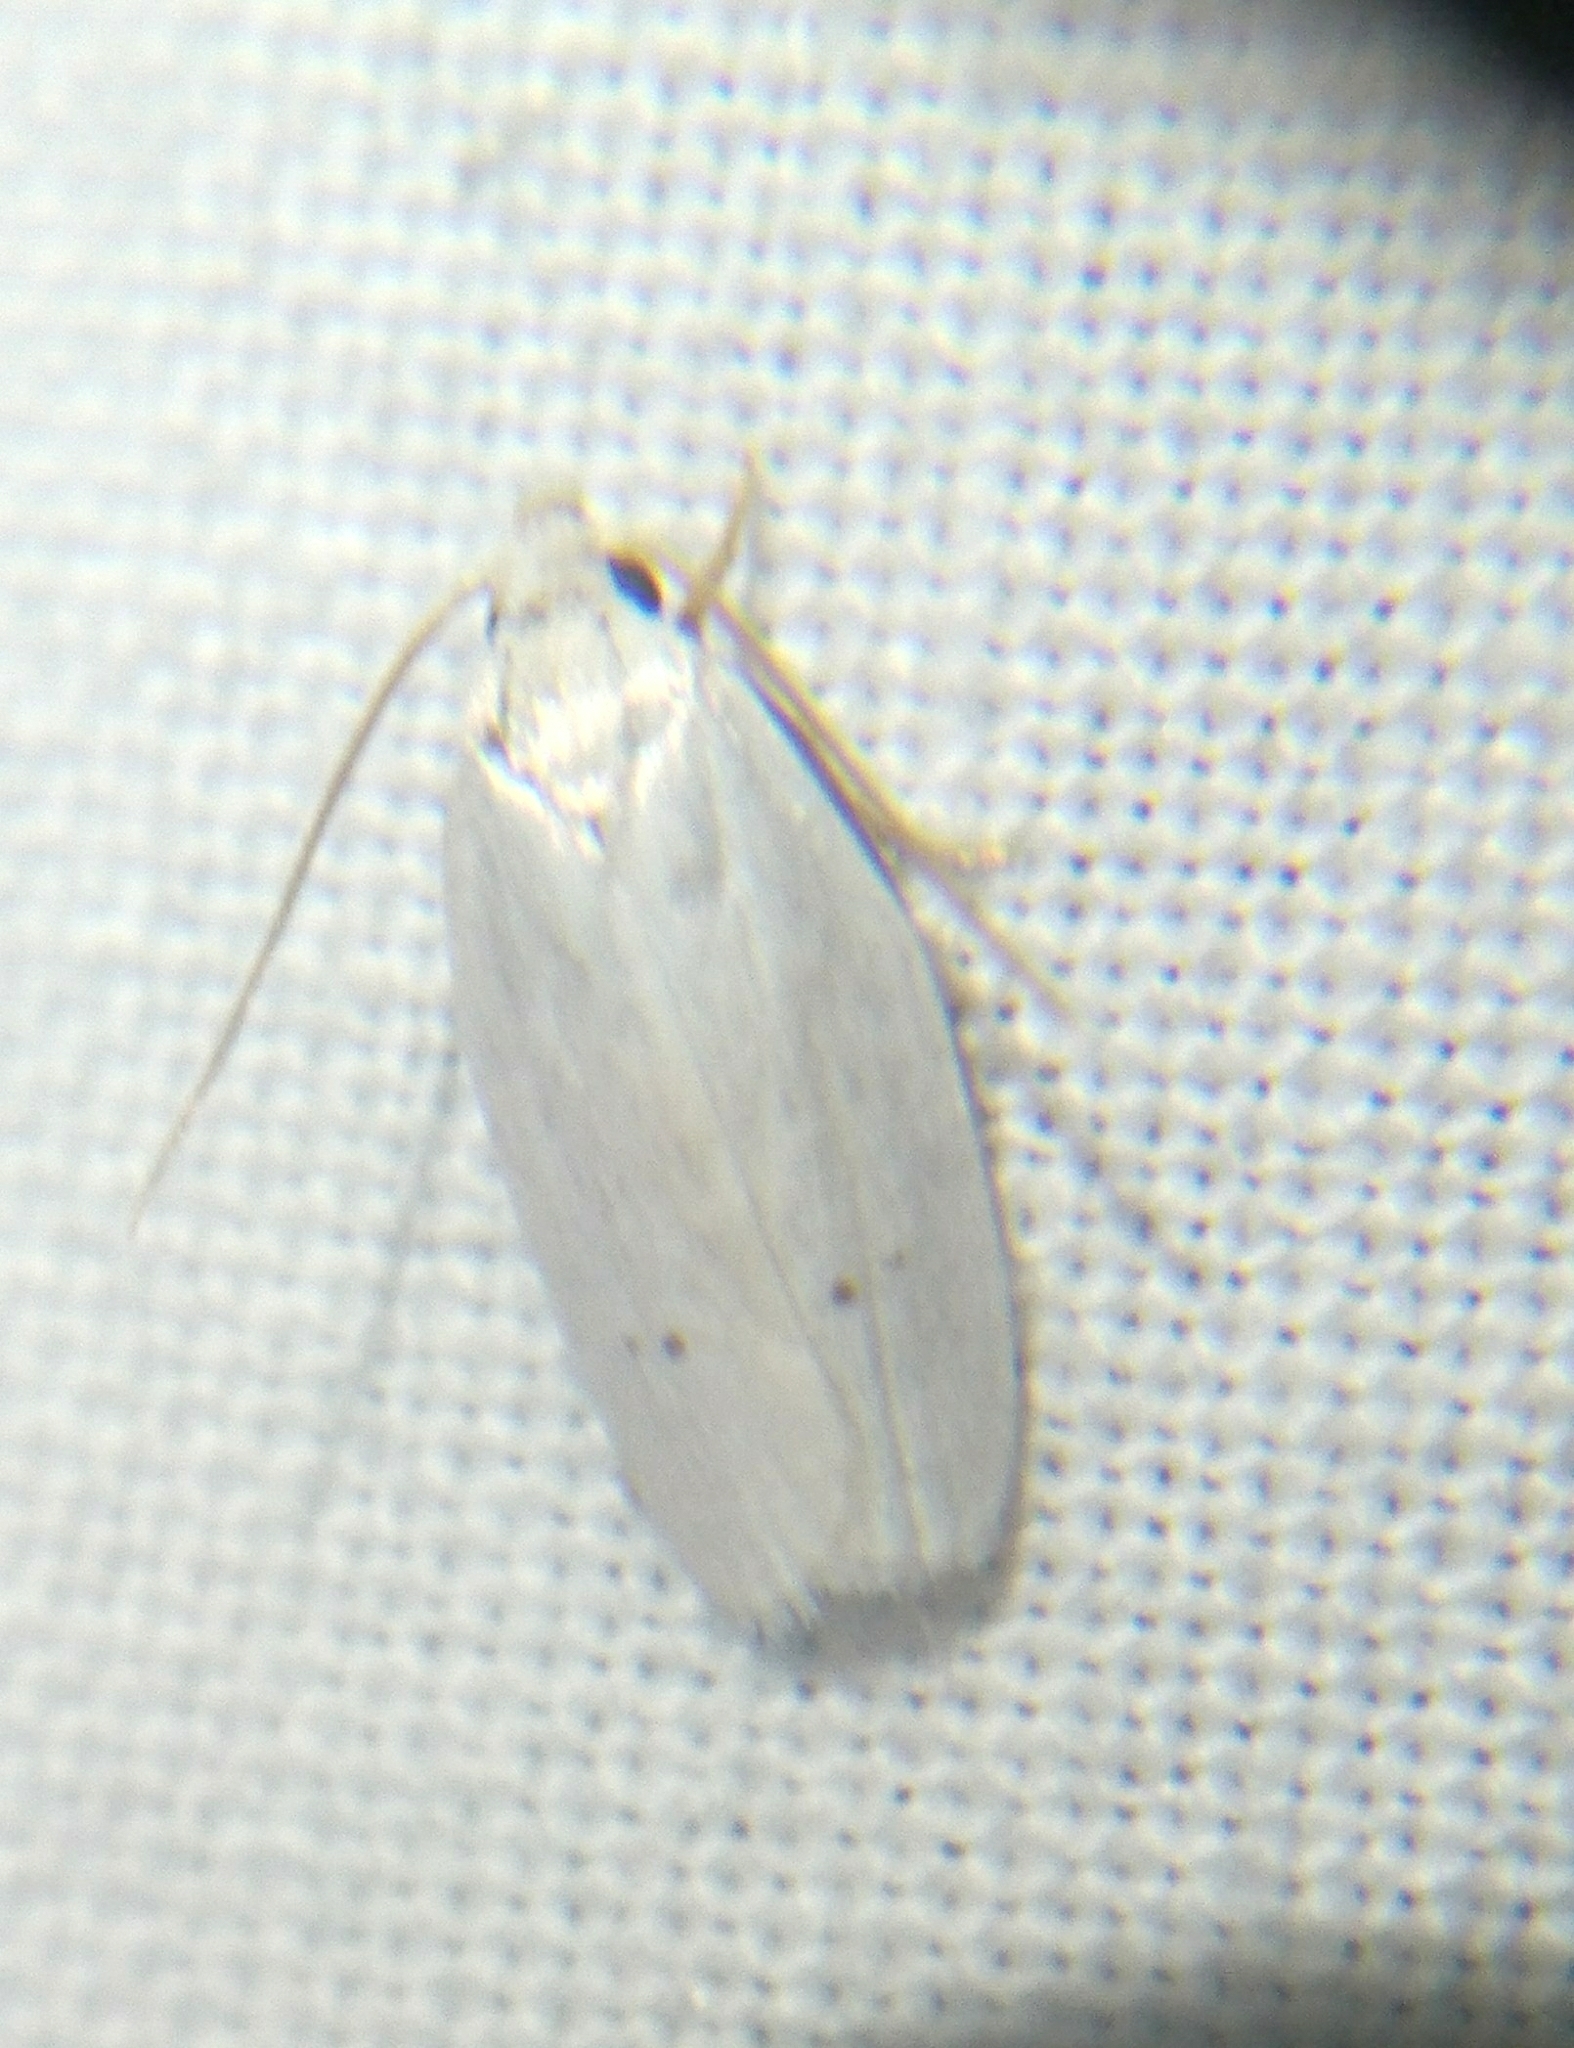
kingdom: Animalia
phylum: Arthropoda
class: Insecta
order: Lepidoptera
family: Depressariidae
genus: Antaeotricha
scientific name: Antaeotricha albulella
